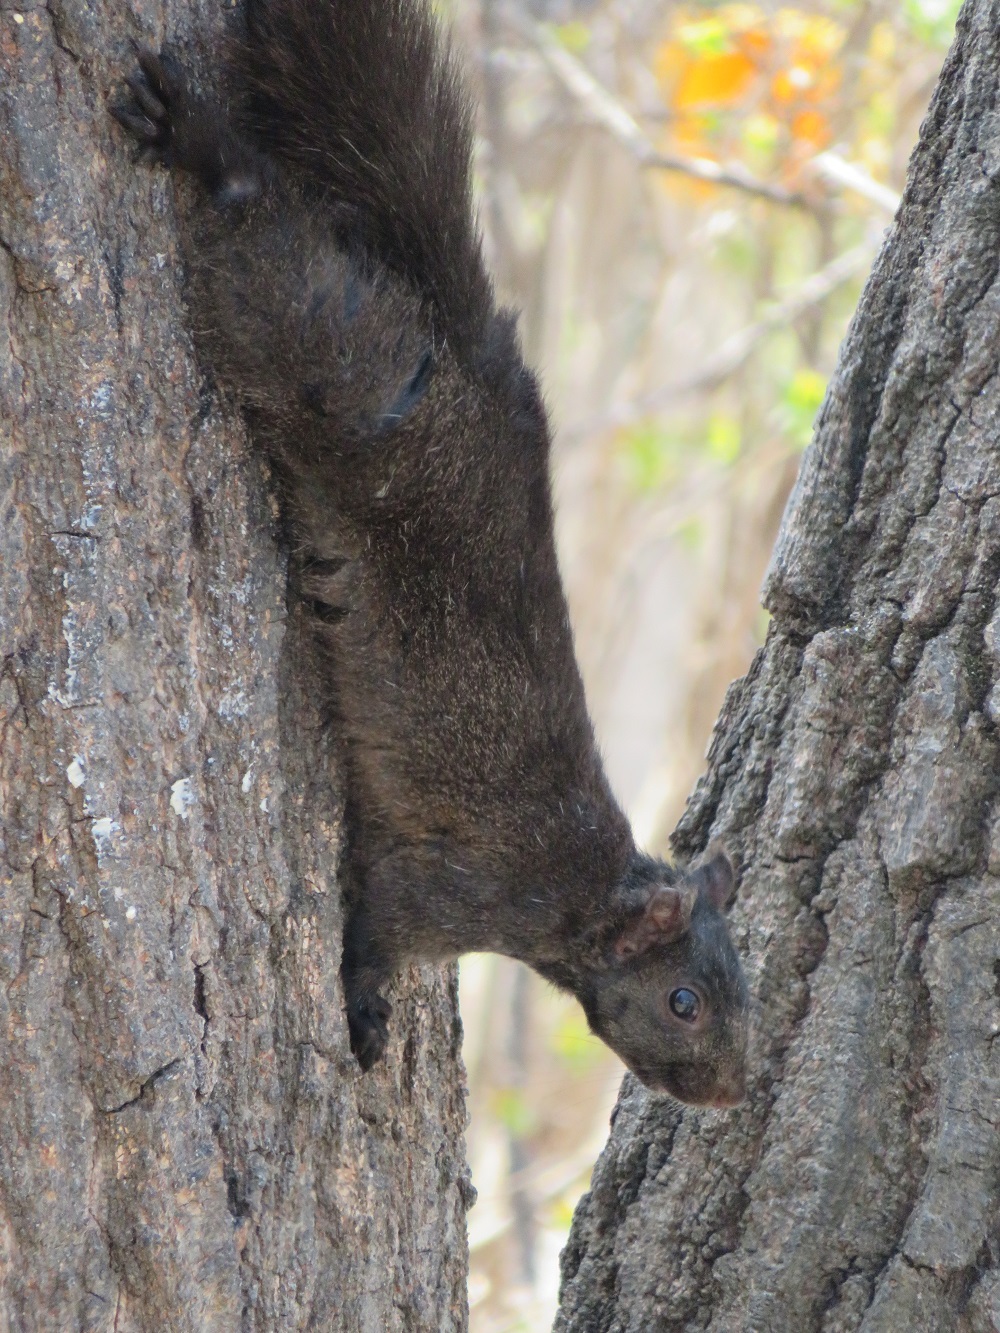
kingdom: Animalia
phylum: Chordata
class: Mammalia
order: Rodentia
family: Sciuridae
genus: Sciurus
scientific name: Sciurus carolinensis
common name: Eastern gray squirrel
